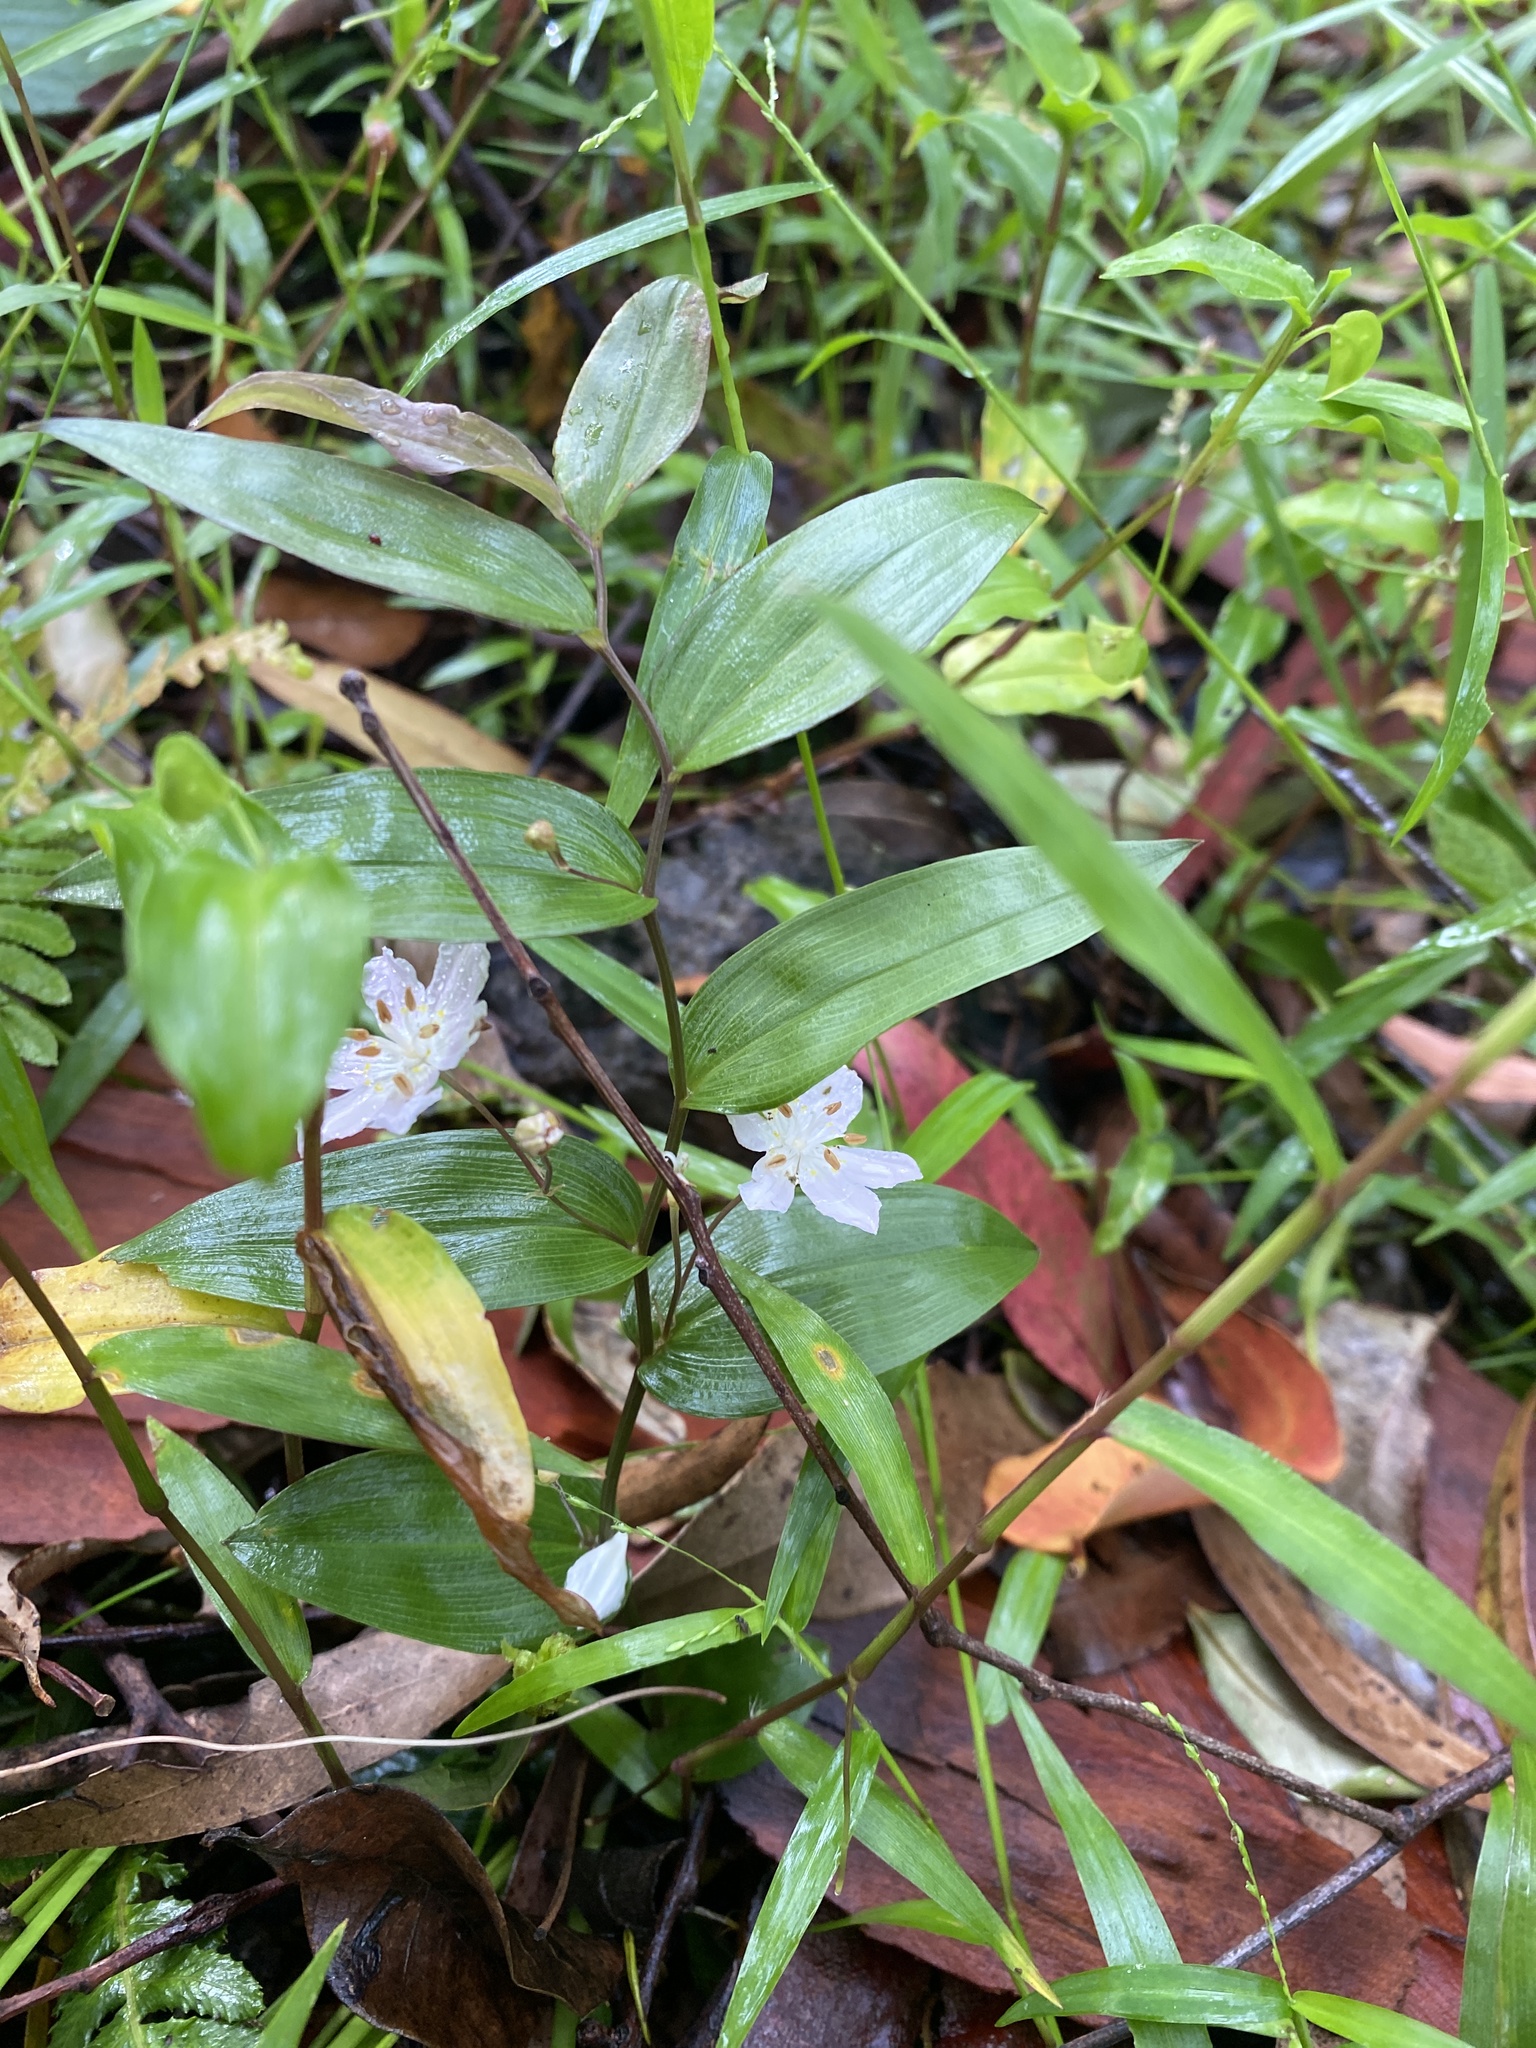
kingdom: Plantae
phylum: Tracheophyta
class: Liliopsida
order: Liliales
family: Colchicaceae
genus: Tripladenia
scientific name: Tripladenia cunninghamii
